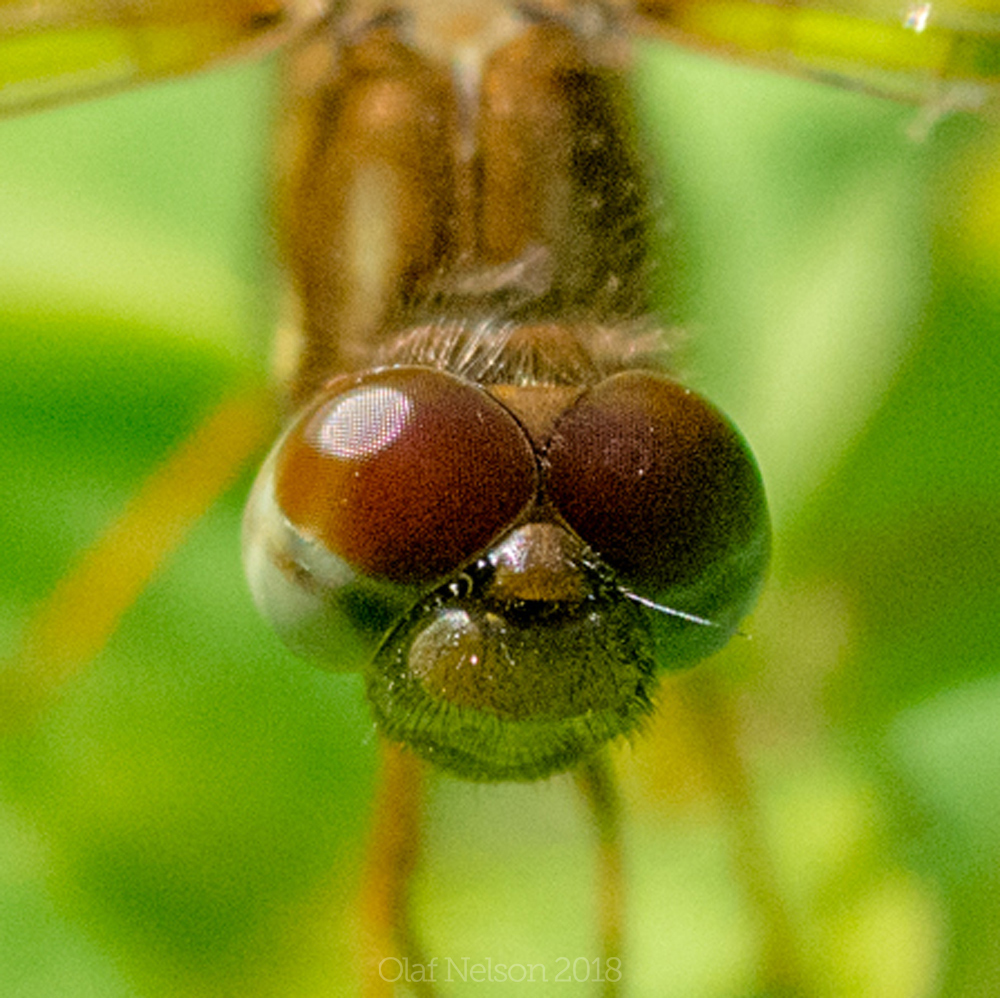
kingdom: Animalia
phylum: Arthropoda
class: Insecta
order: Odonata
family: Libellulidae
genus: Perithemis
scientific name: Perithemis tenera
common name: Eastern amberwing
